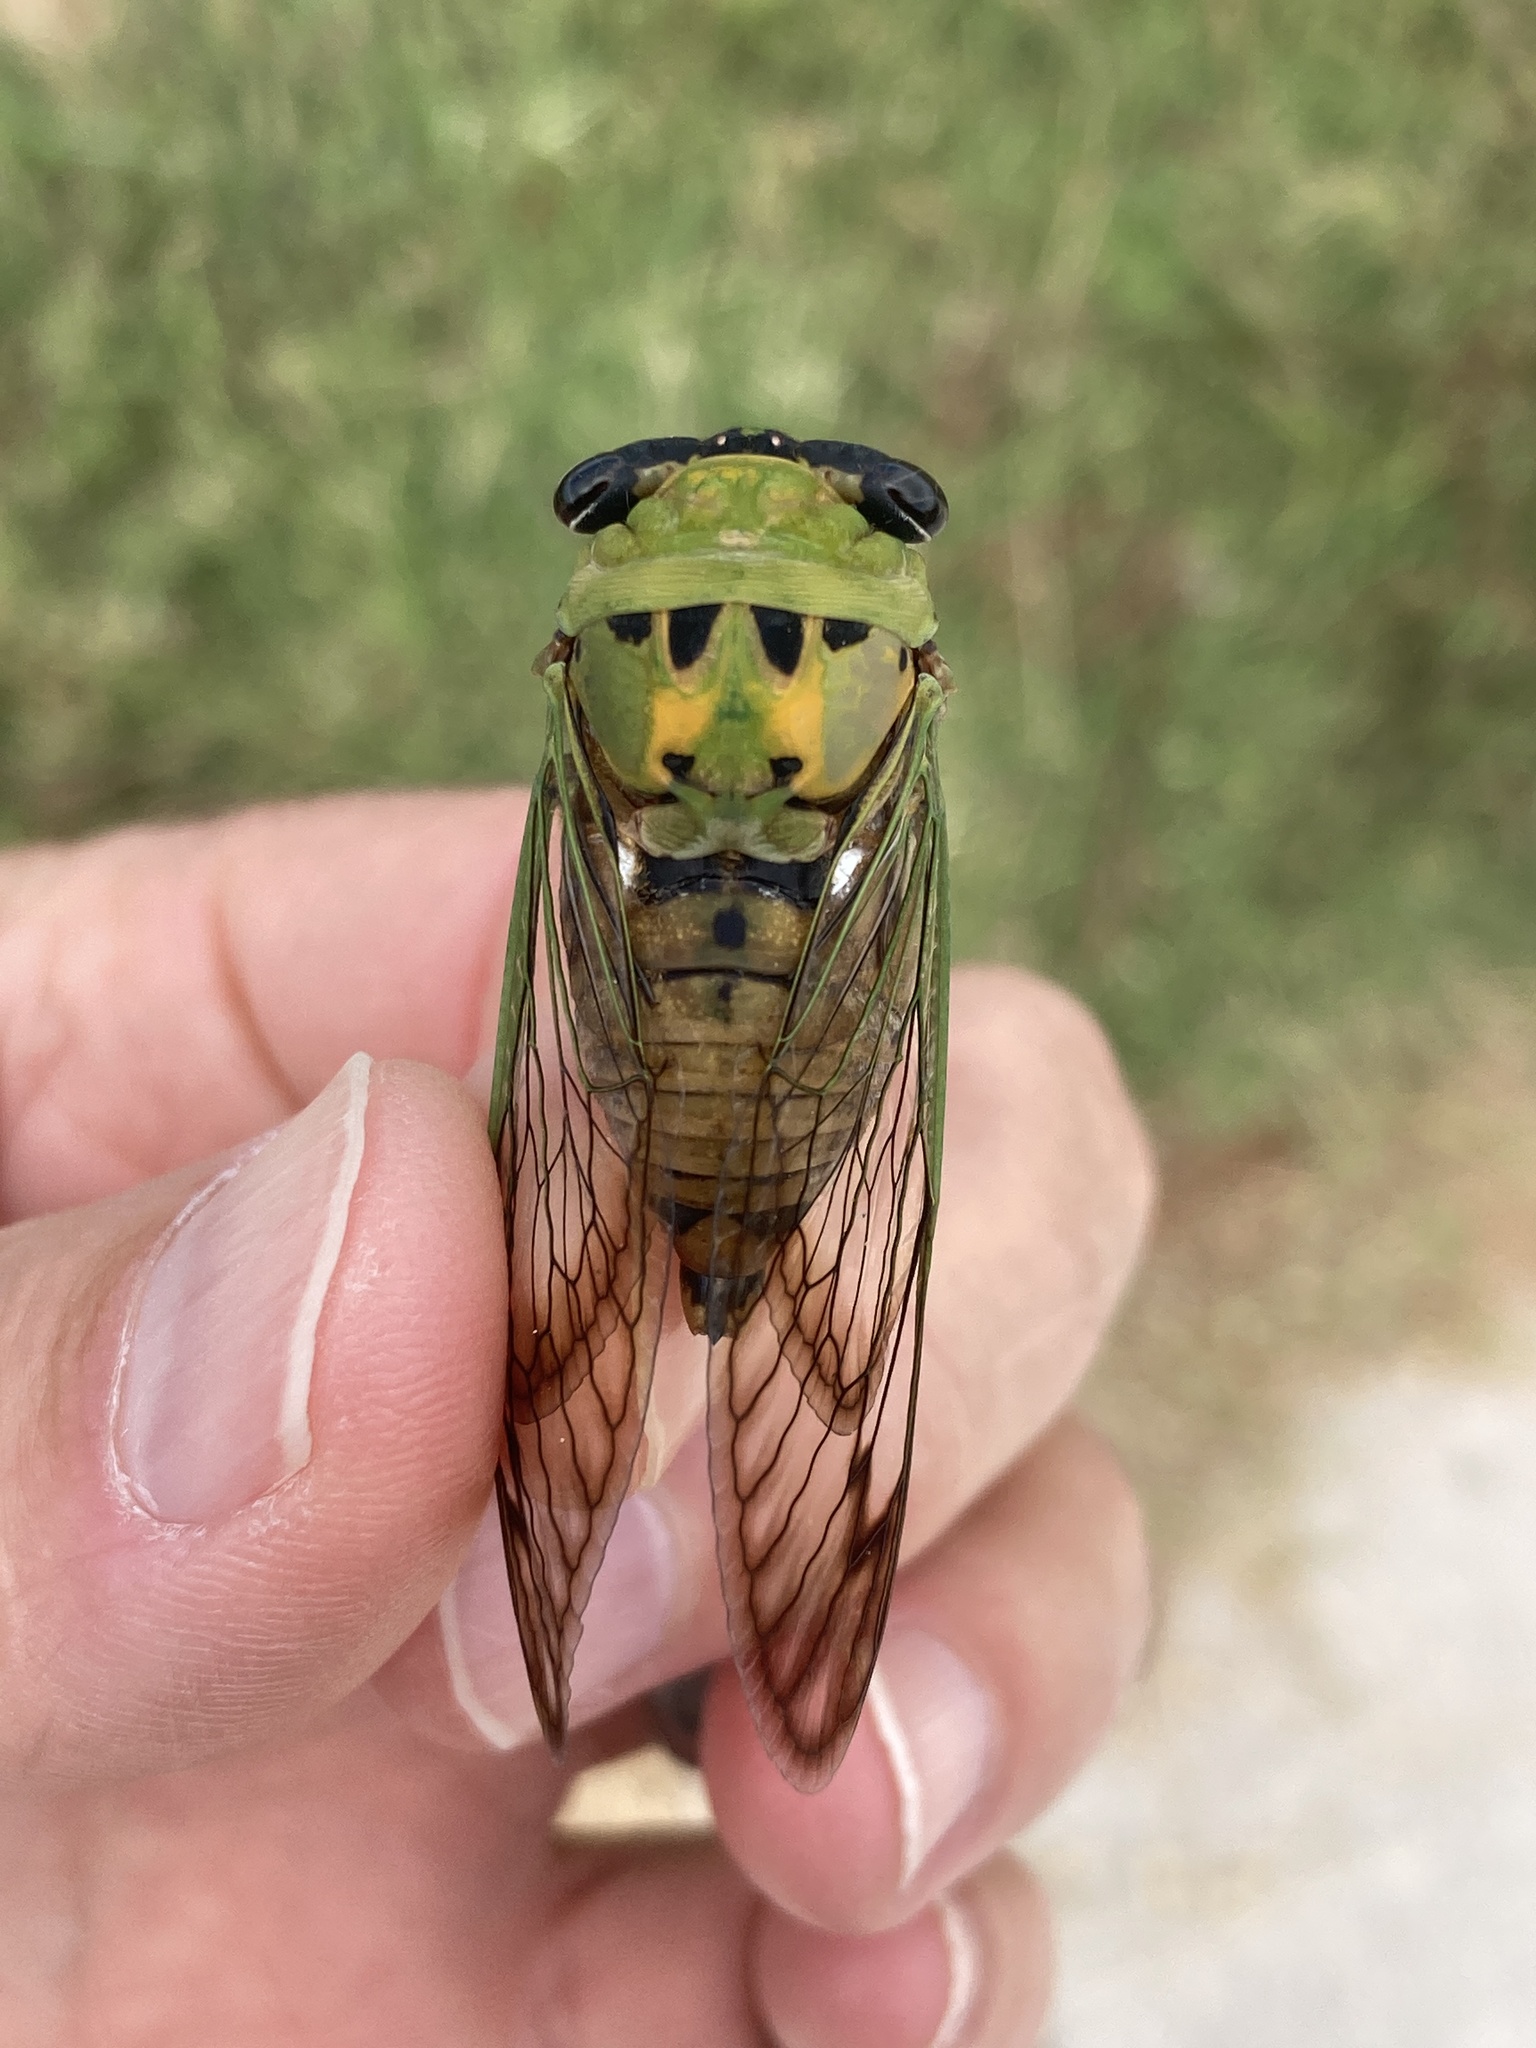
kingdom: Animalia
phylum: Arthropoda
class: Insecta
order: Hemiptera
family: Cicadidae
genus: Neotibicen
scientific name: Neotibicen superbus
